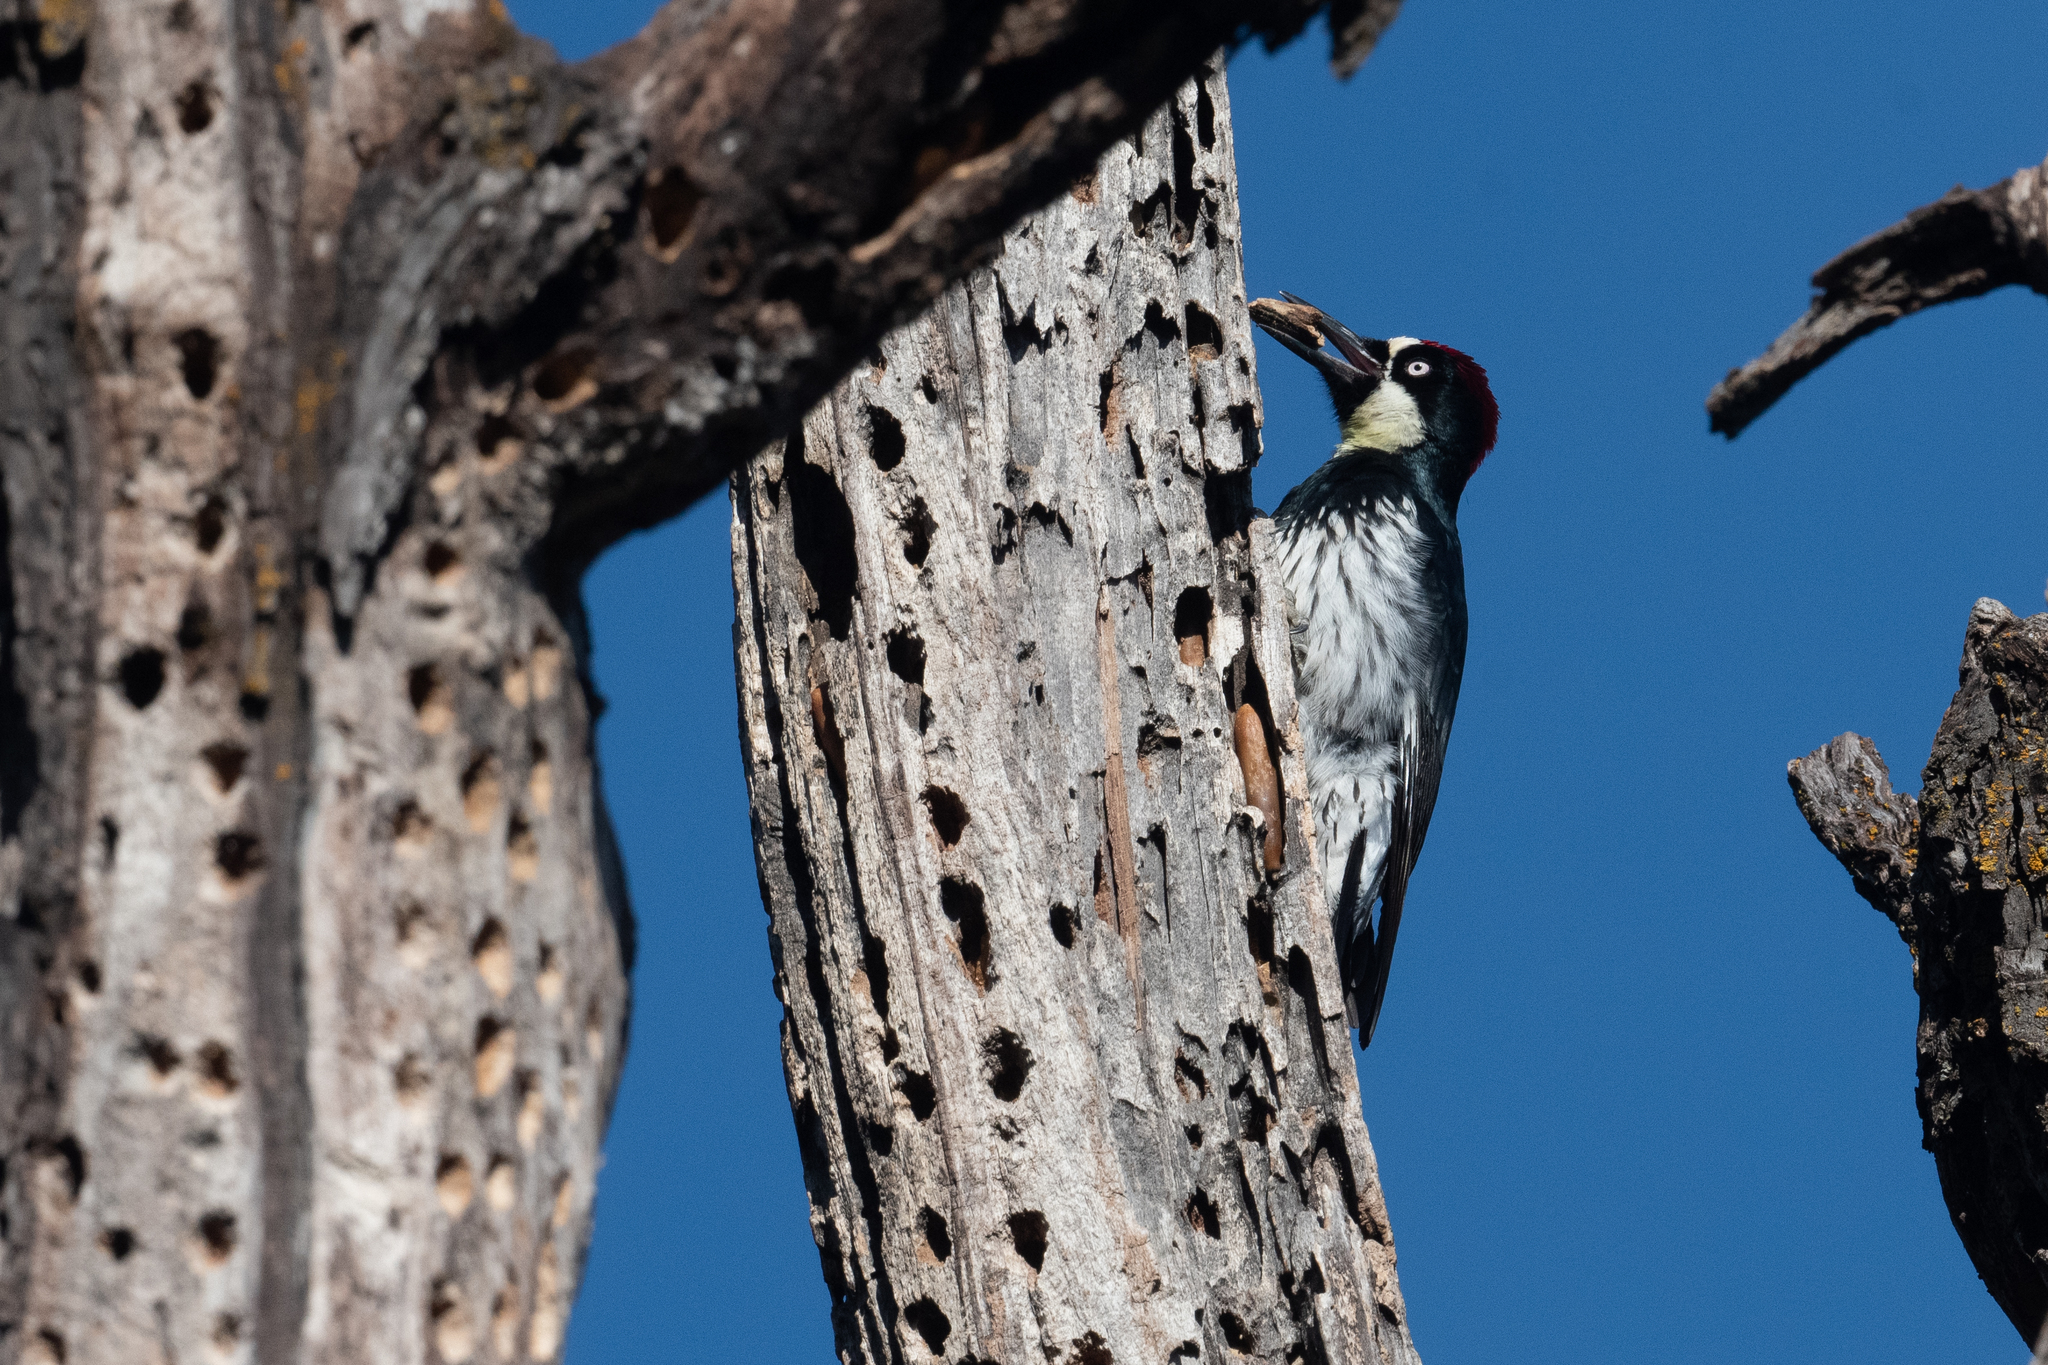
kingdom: Animalia
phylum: Chordata
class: Aves
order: Piciformes
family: Picidae
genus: Melanerpes
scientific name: Melanerpes formicivorus
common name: Acorn woodpecker
